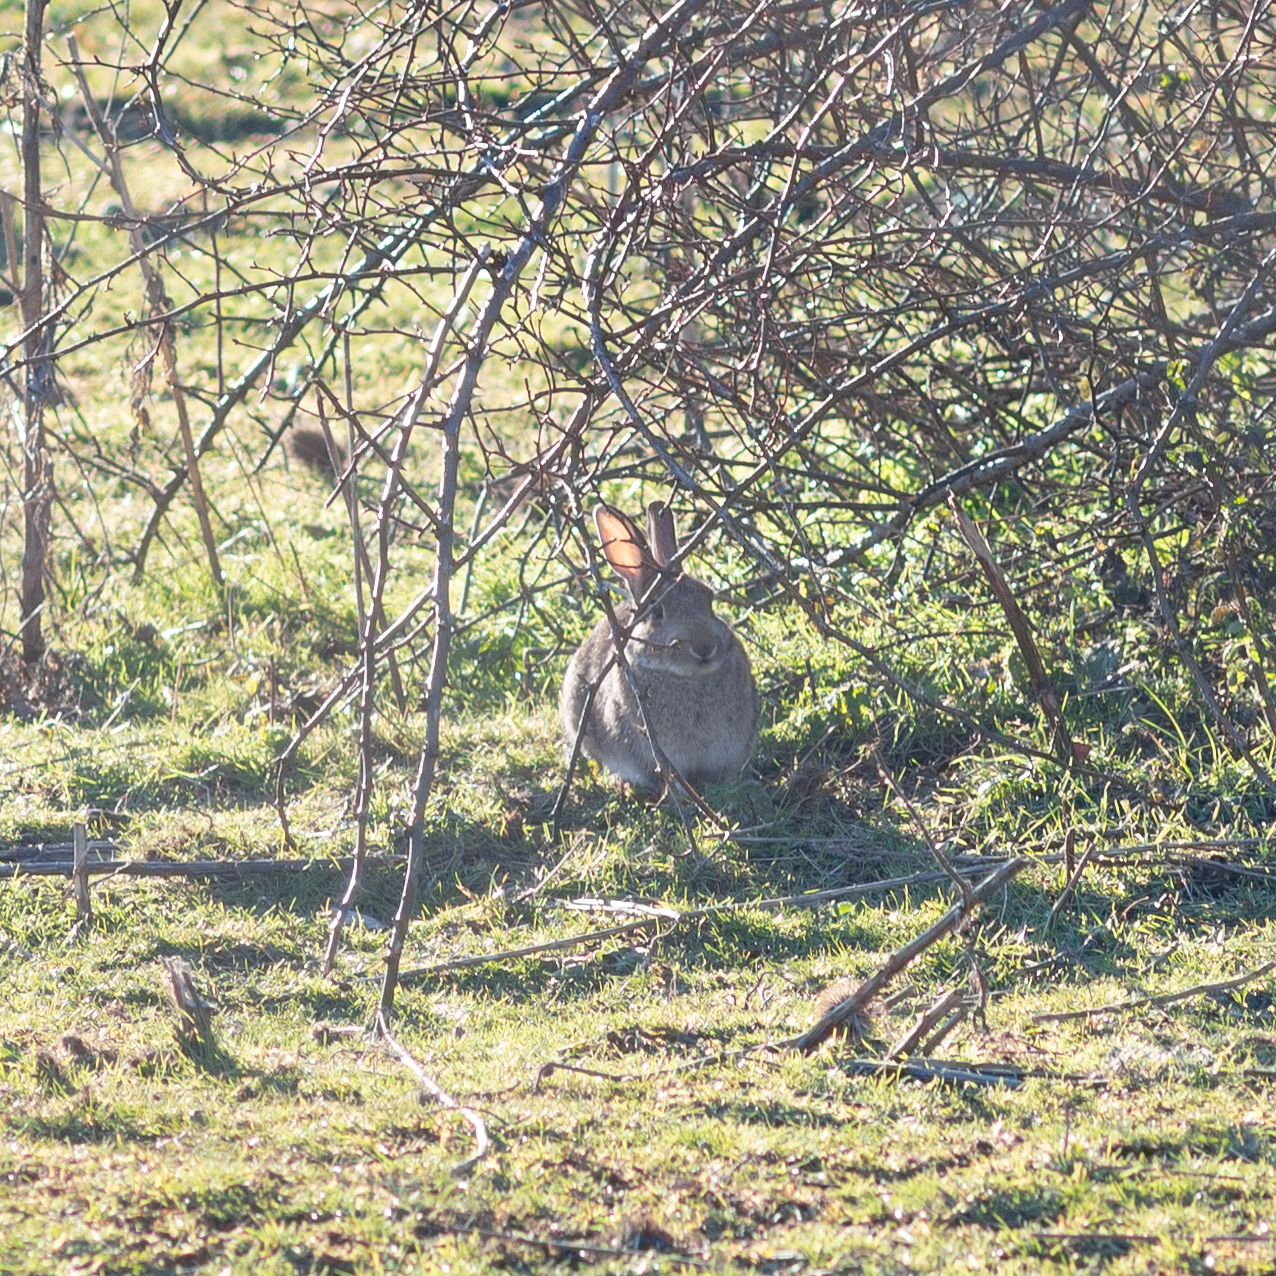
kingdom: Animalia
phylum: Chordata
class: Mammalia
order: Lagomorpha
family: Leporidae
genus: Oryctolagus
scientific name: Oryctolagus cuniculus
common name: European rabbit
